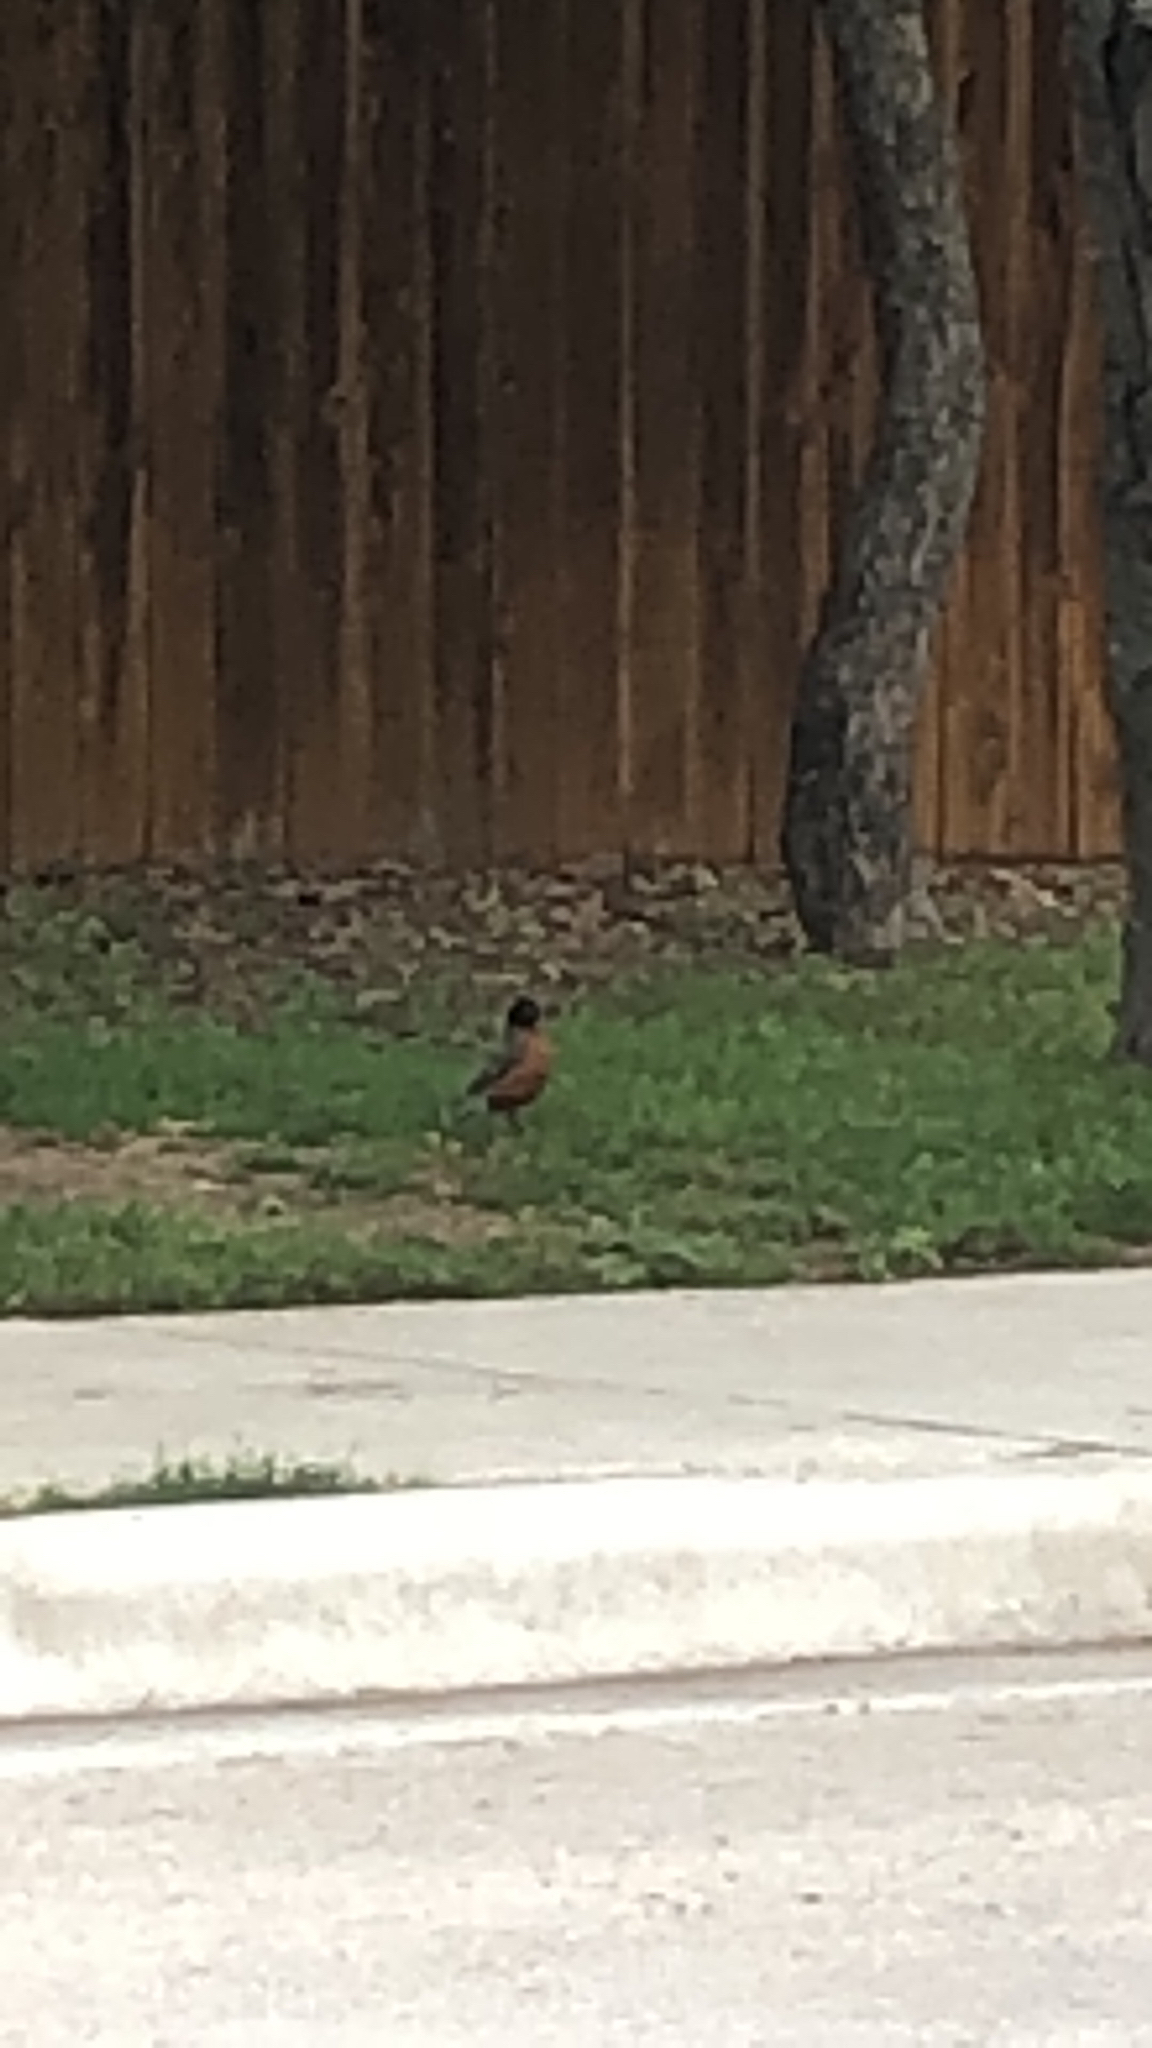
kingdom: Animalia
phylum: Chordata
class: Aves
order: Passeriformes
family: Turdidae
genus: Turdus
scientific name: Turdus migratorius
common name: American robin
